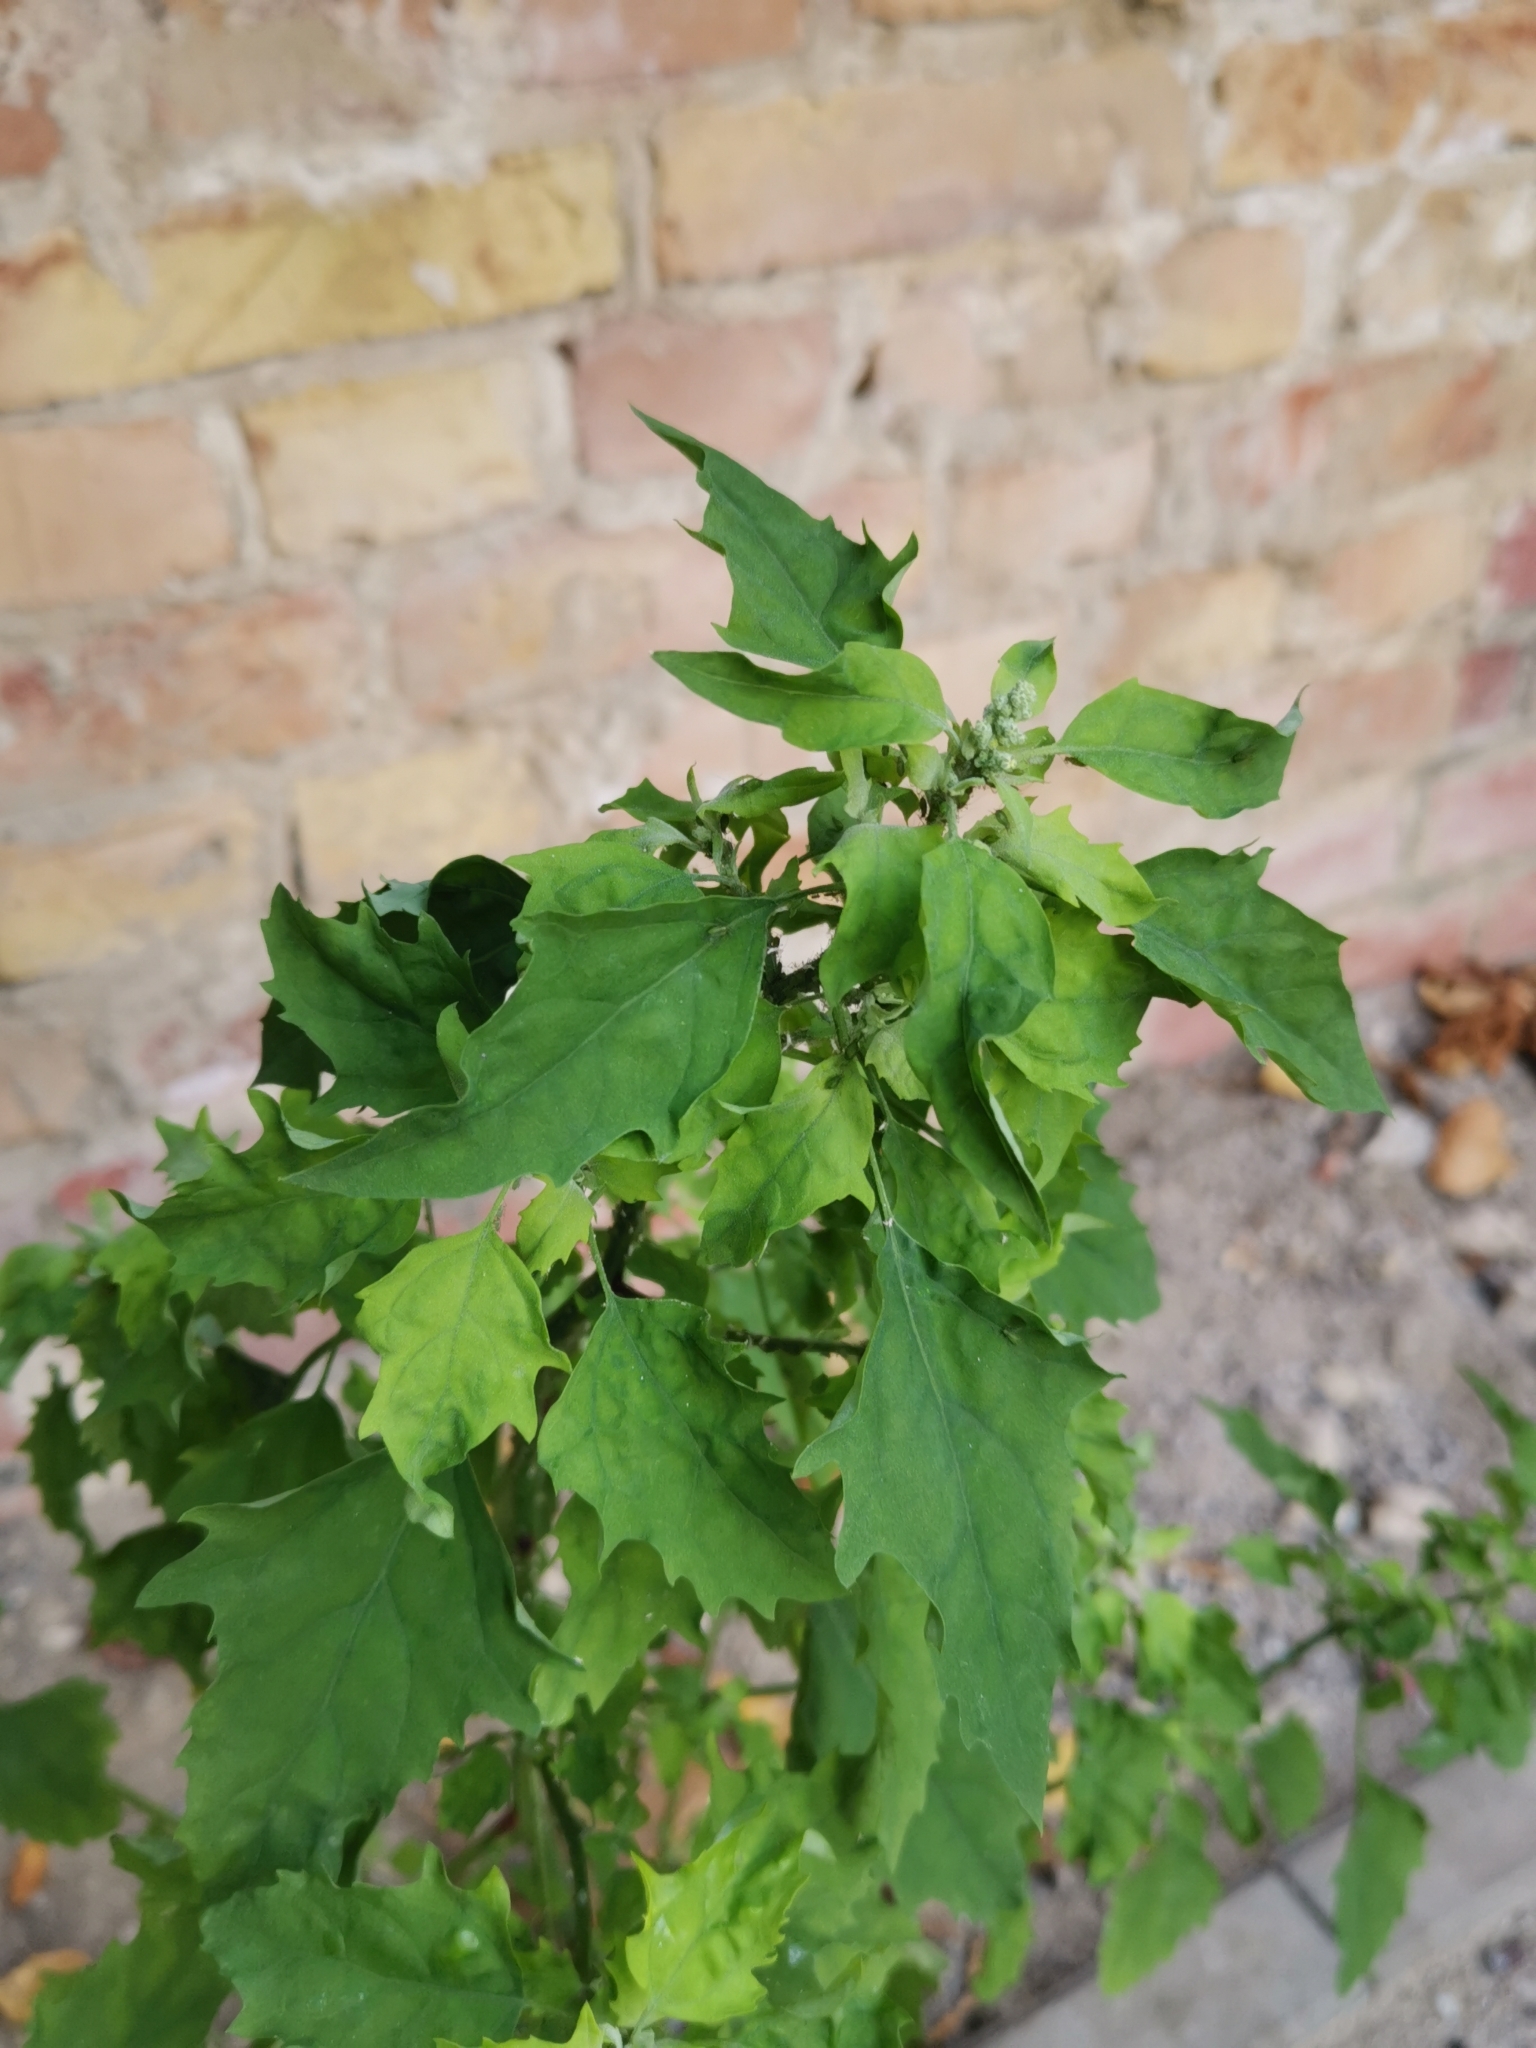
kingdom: Plantae
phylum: Tracheophyta
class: Magnoliopsida
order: Caryophyllales
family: Amaranthaceae
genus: Chenopodium
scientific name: Chenopodium album
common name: Fat-hen
